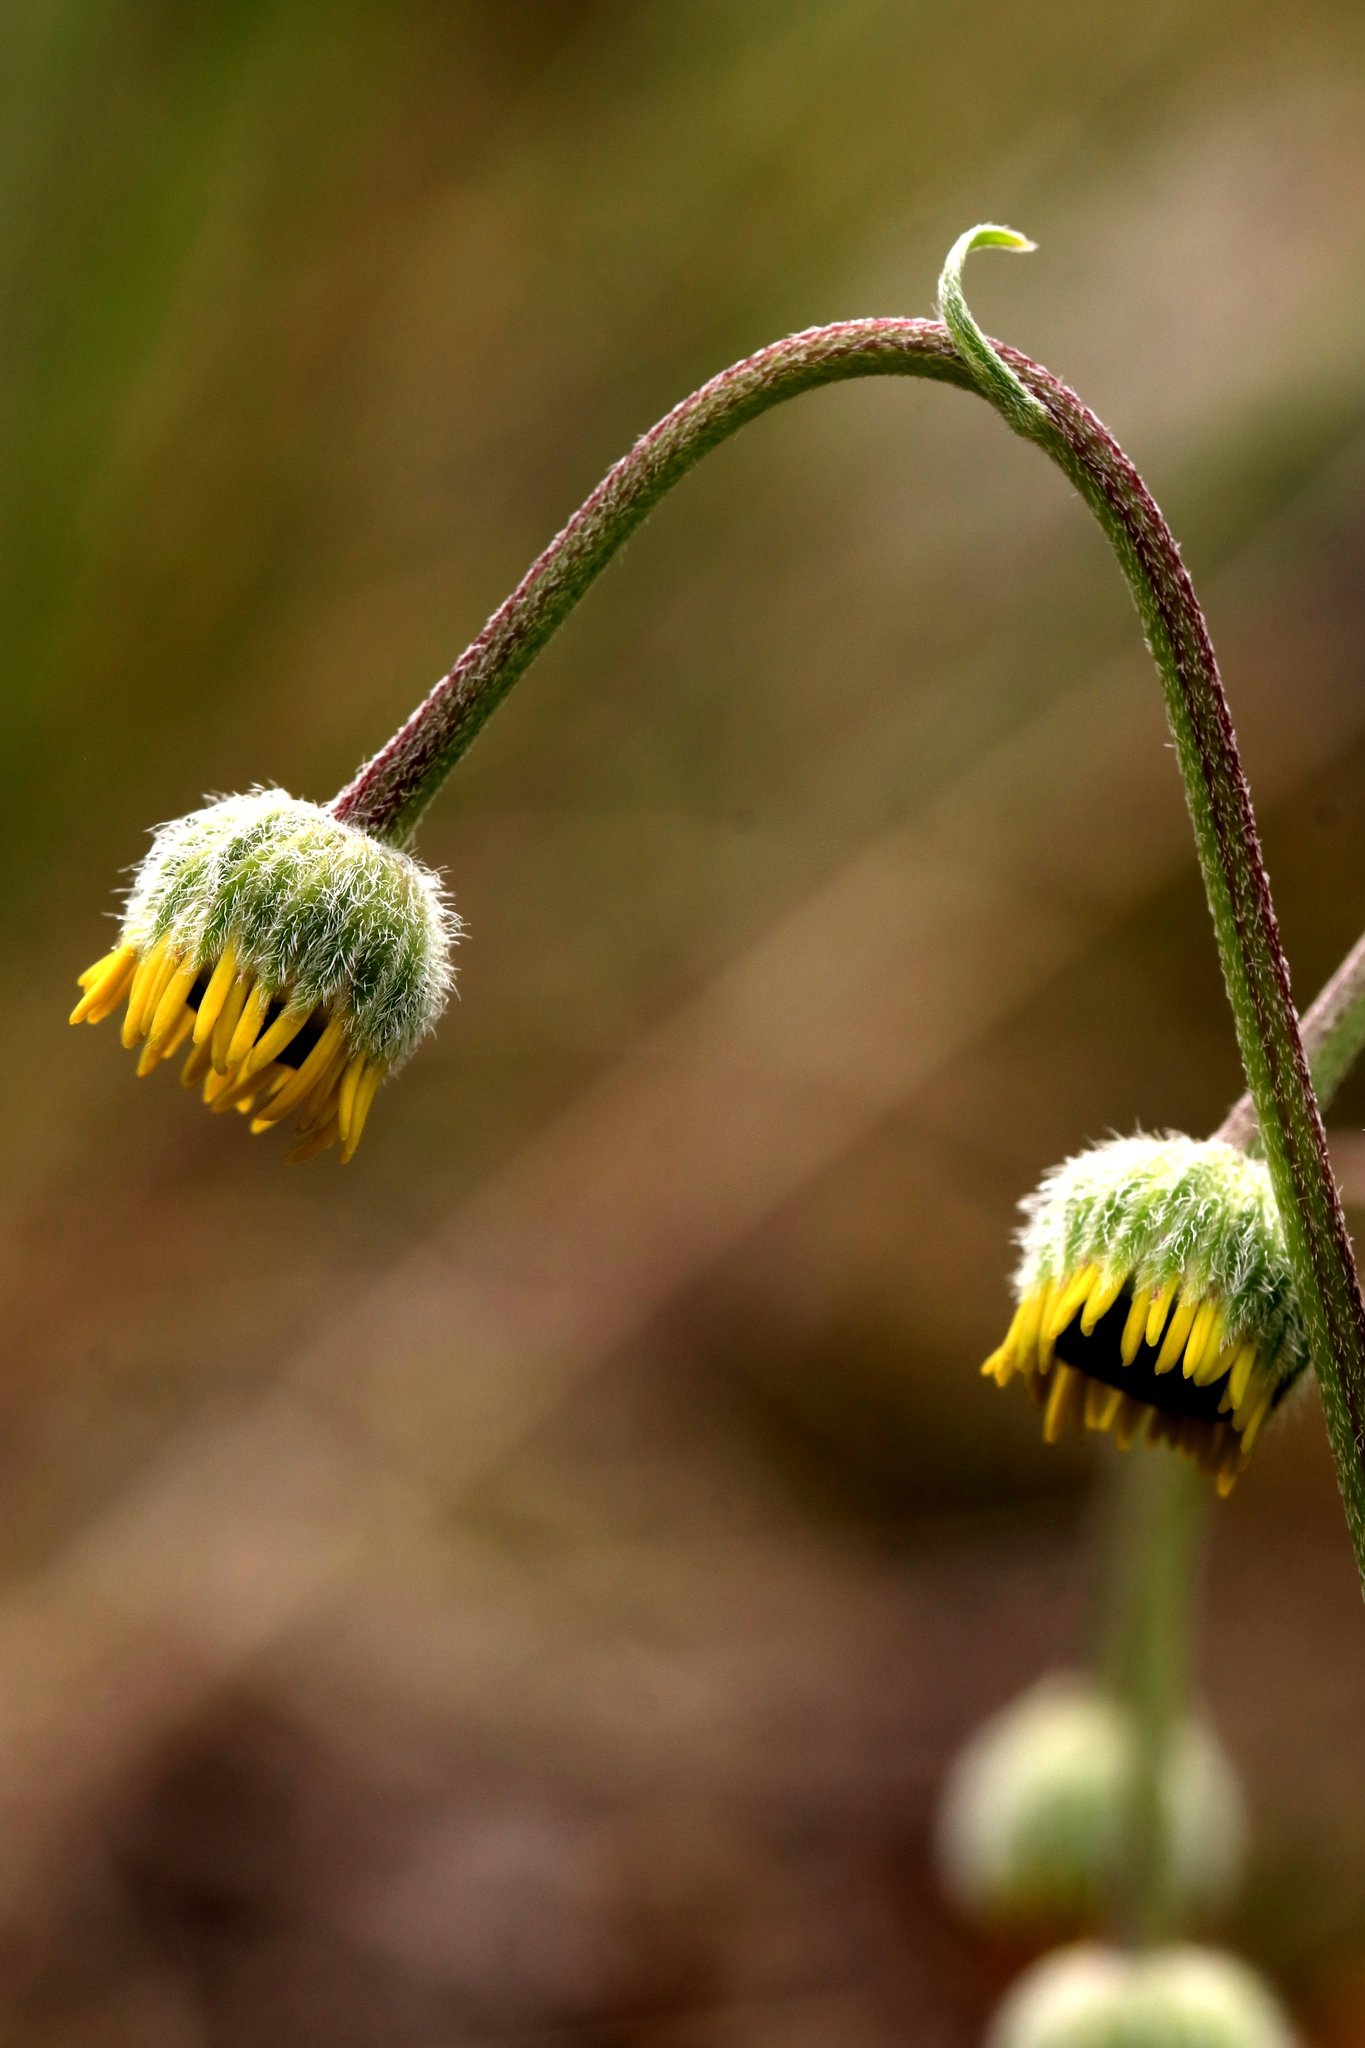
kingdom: Plantae
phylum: Tracheophyta
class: Magnoliopsida
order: Asterales
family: Asteraceae
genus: Erigeron
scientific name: Erigeron linearis
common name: Desert yellow fleabane
